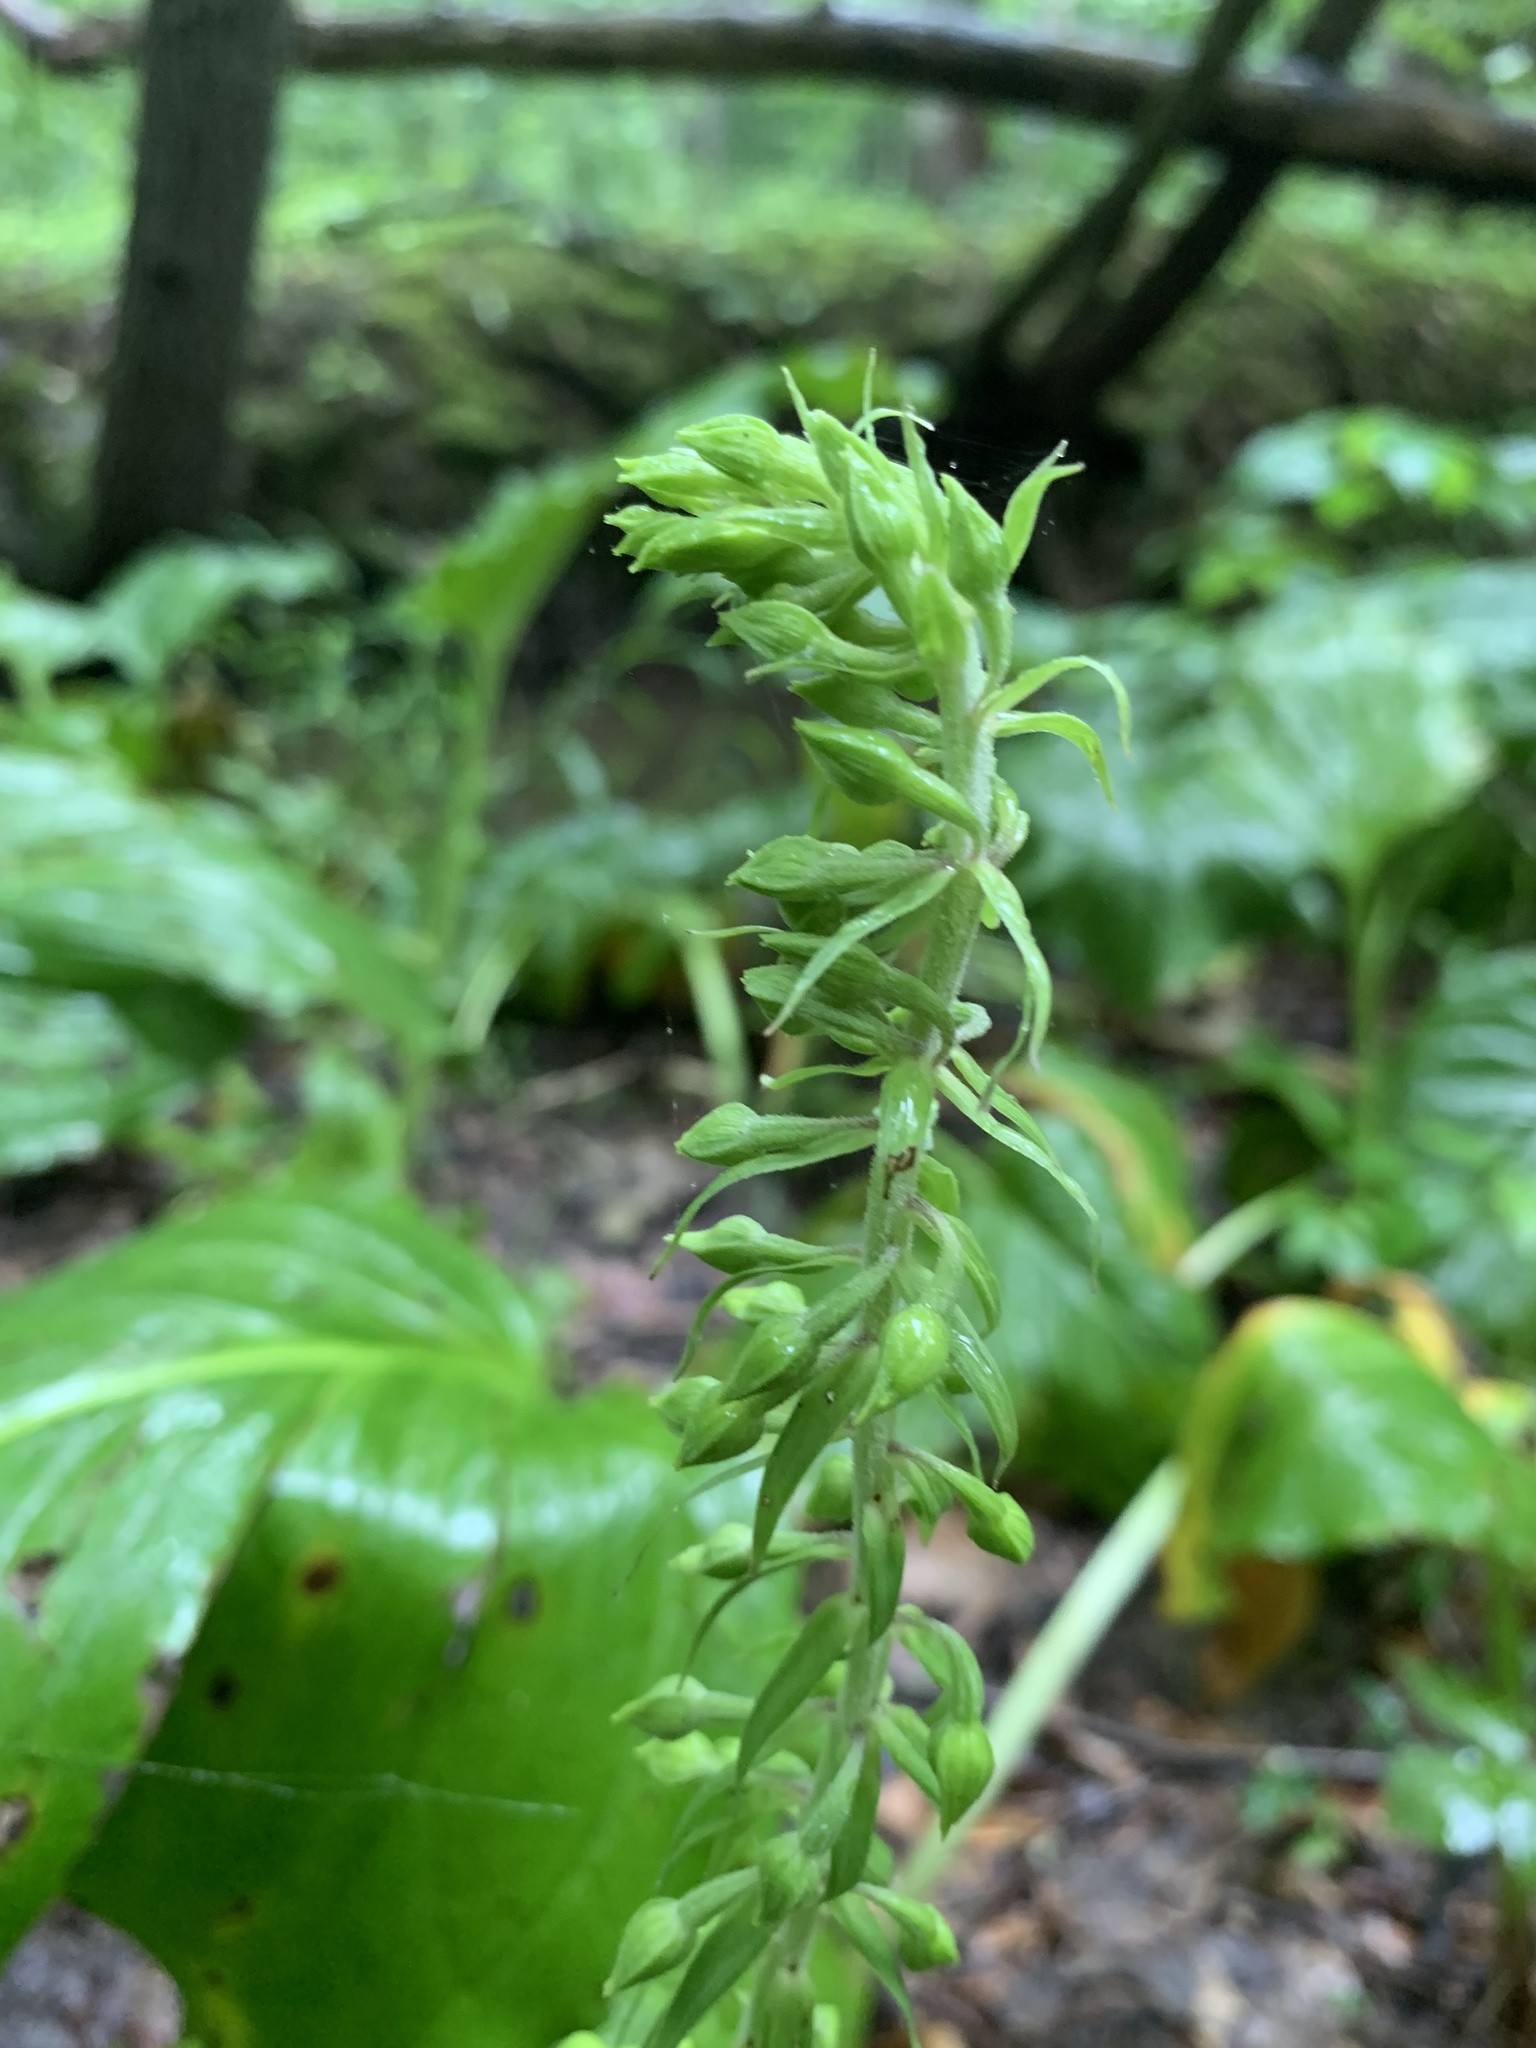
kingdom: Plantae
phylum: Tracheophyta
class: Liliopsida
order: Asparagales
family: Orchidaceae
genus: Epipactis
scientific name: Epipactis helleborine
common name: Broad-leaved helleborine
